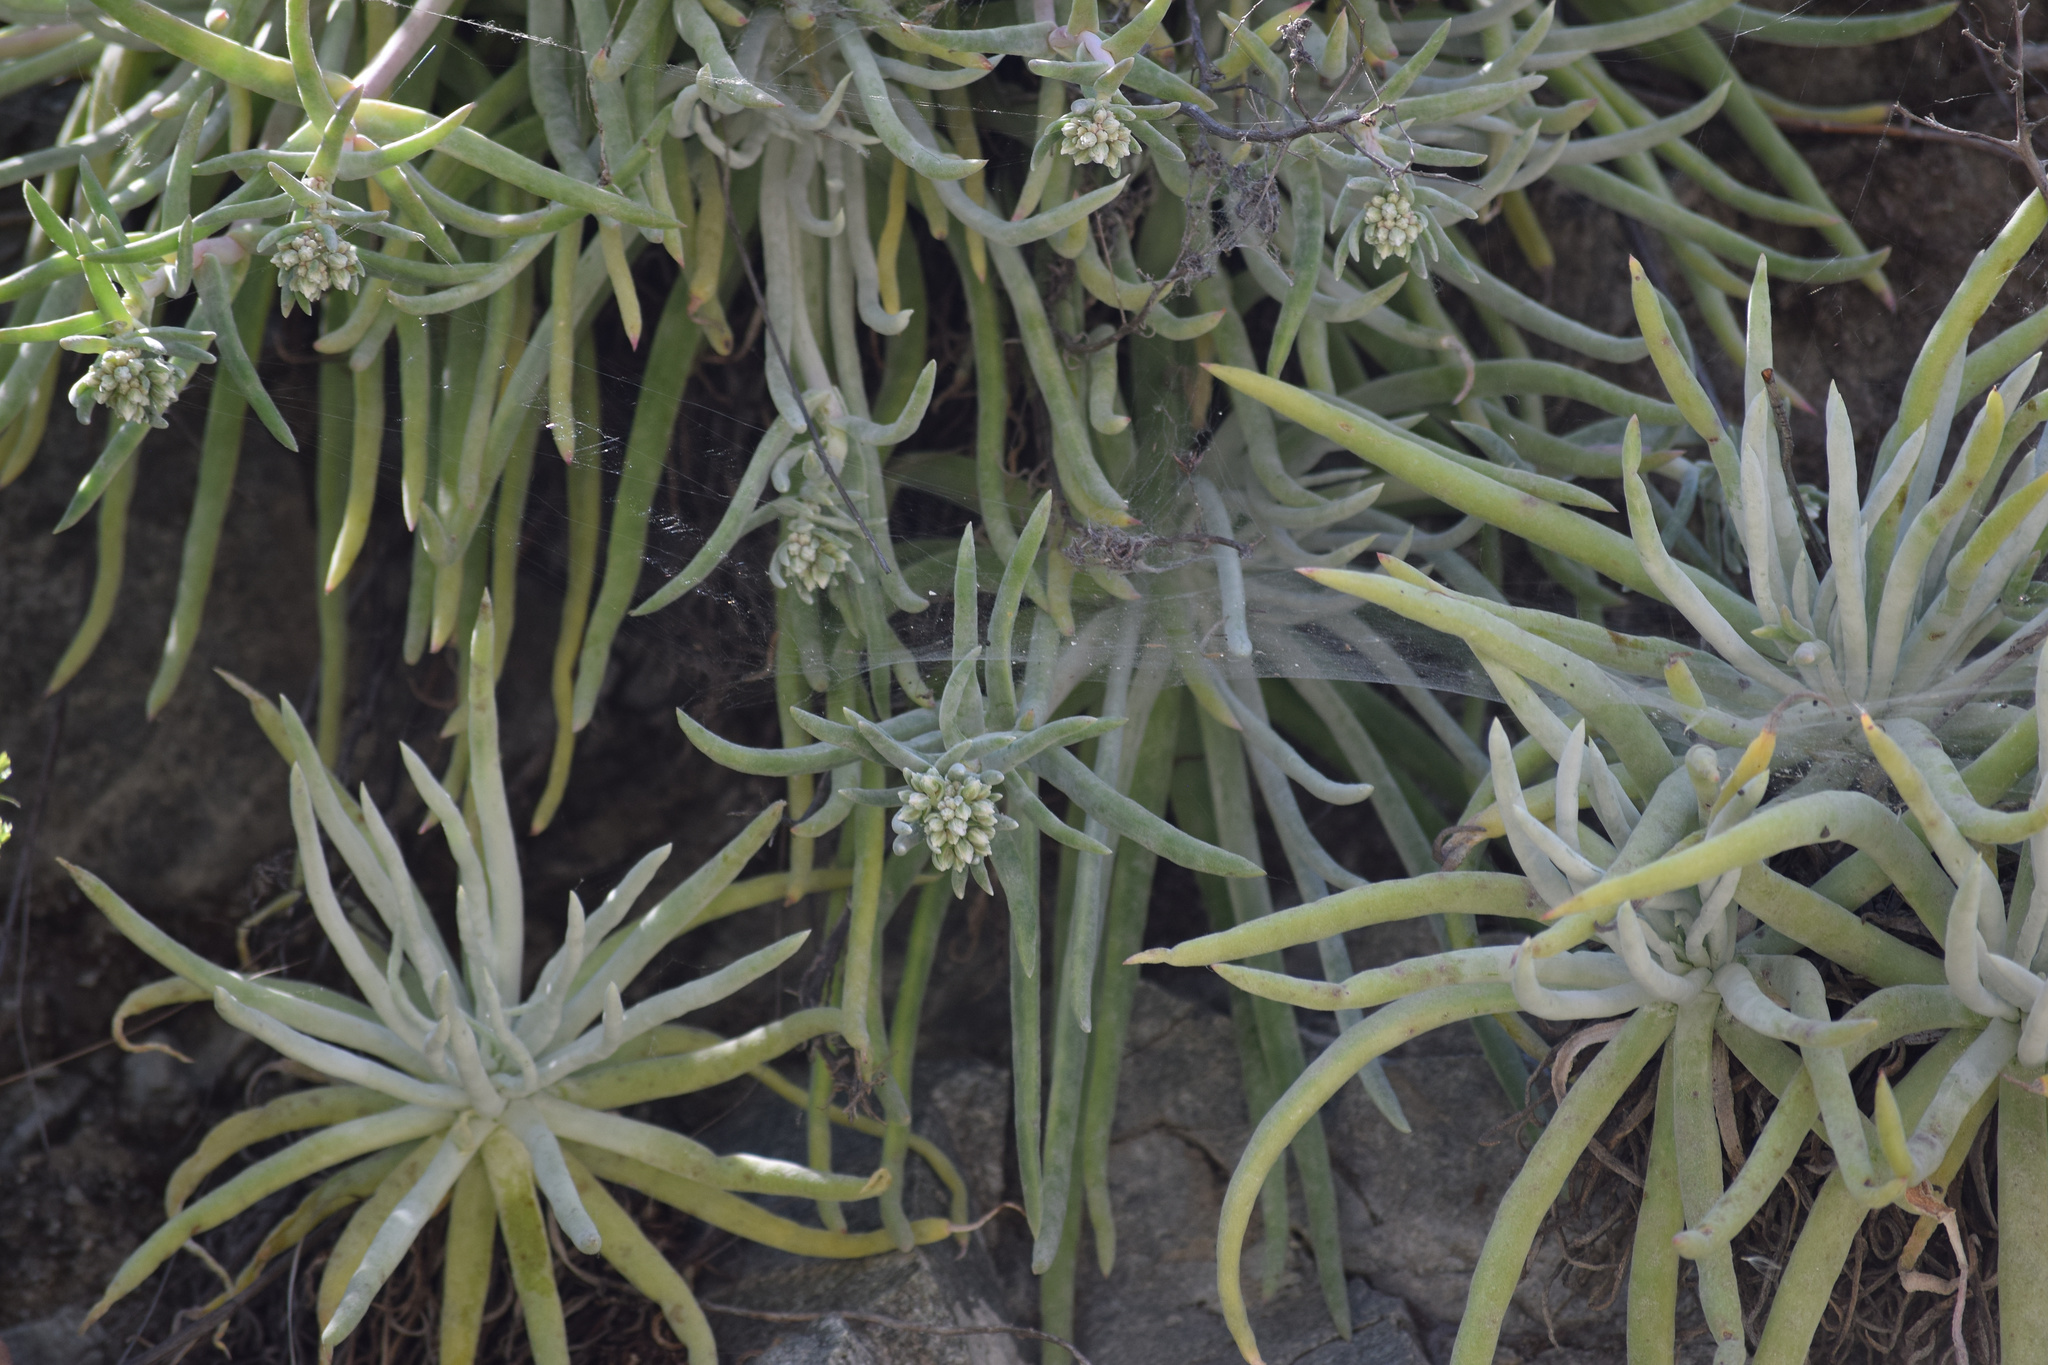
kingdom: Plantae
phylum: Tracheophyta
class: Magnoliopsida
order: Saxifragales
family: Crassulaceae
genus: Dudleya
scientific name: Dudleya densiflora
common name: San gabriel mountains dudleya
